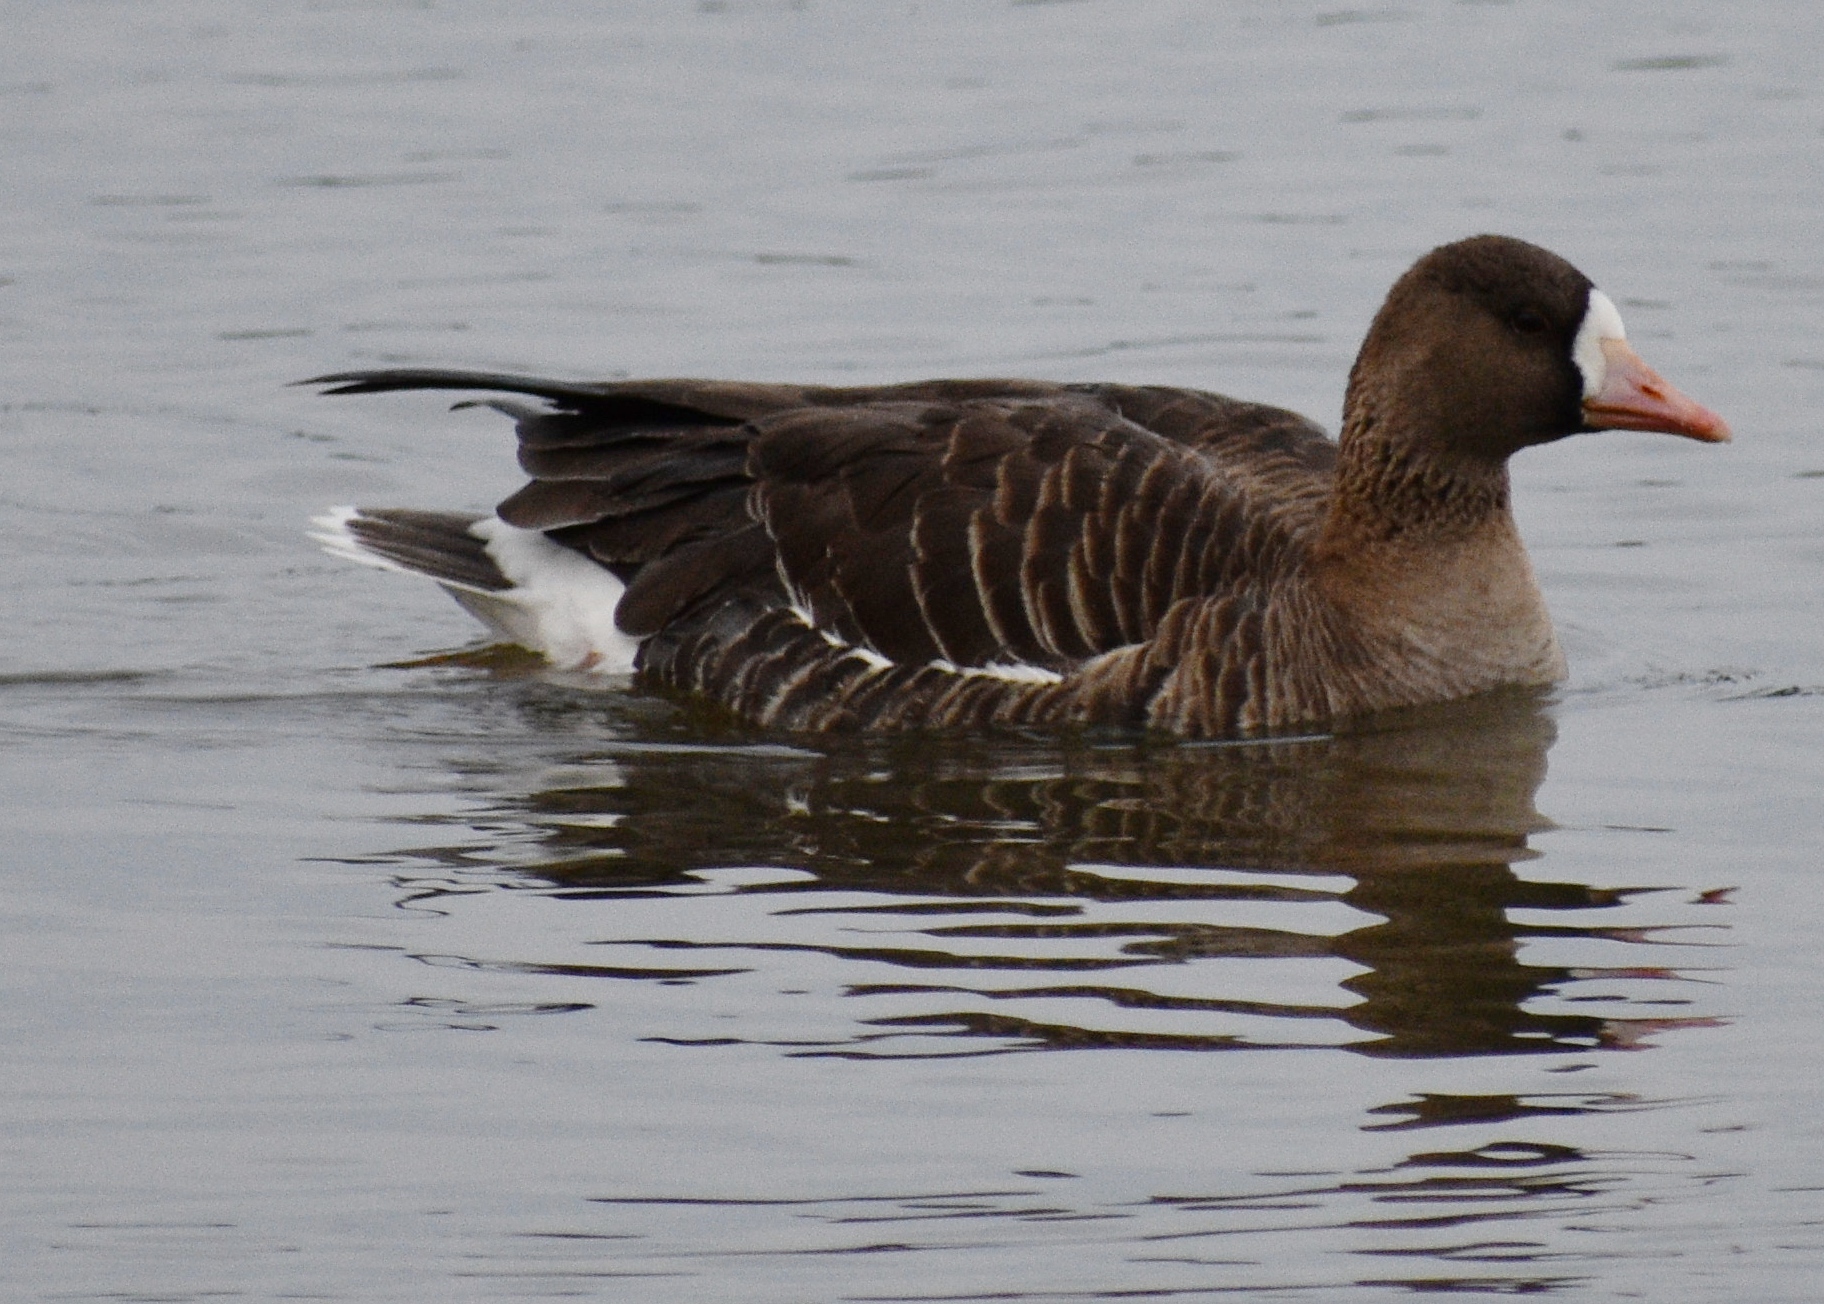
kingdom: Animalia
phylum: Chordata
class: Aves
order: Anseriformes
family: Anatidae
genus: Anser
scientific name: Anser albifrons
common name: Greater white-fronted goose
